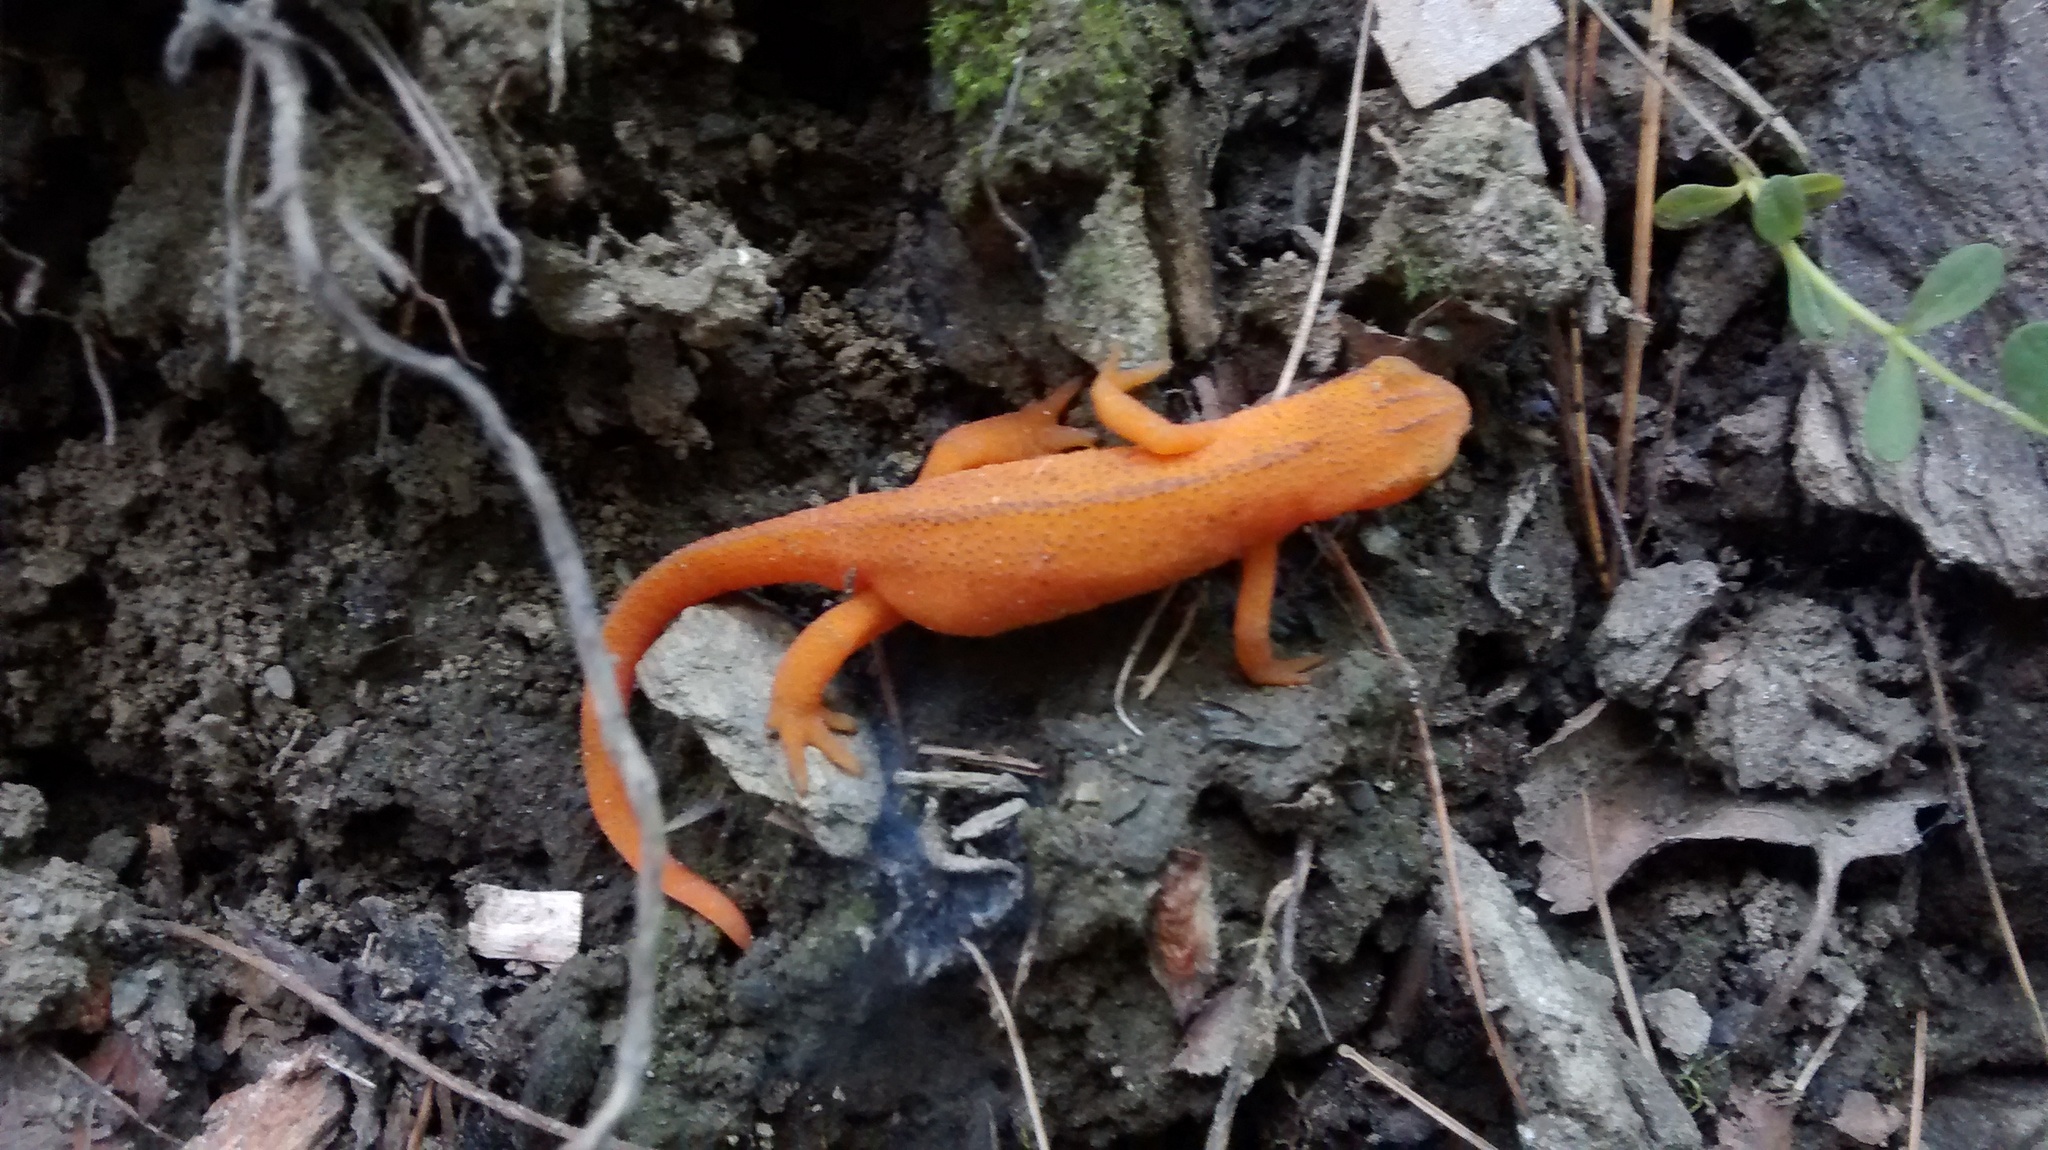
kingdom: Animalia
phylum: Chordata
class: Amphibia
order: Caudata
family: Salamandridae
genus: Notophthalmus
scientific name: Notophthalmus viridescens
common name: Eastern newt
